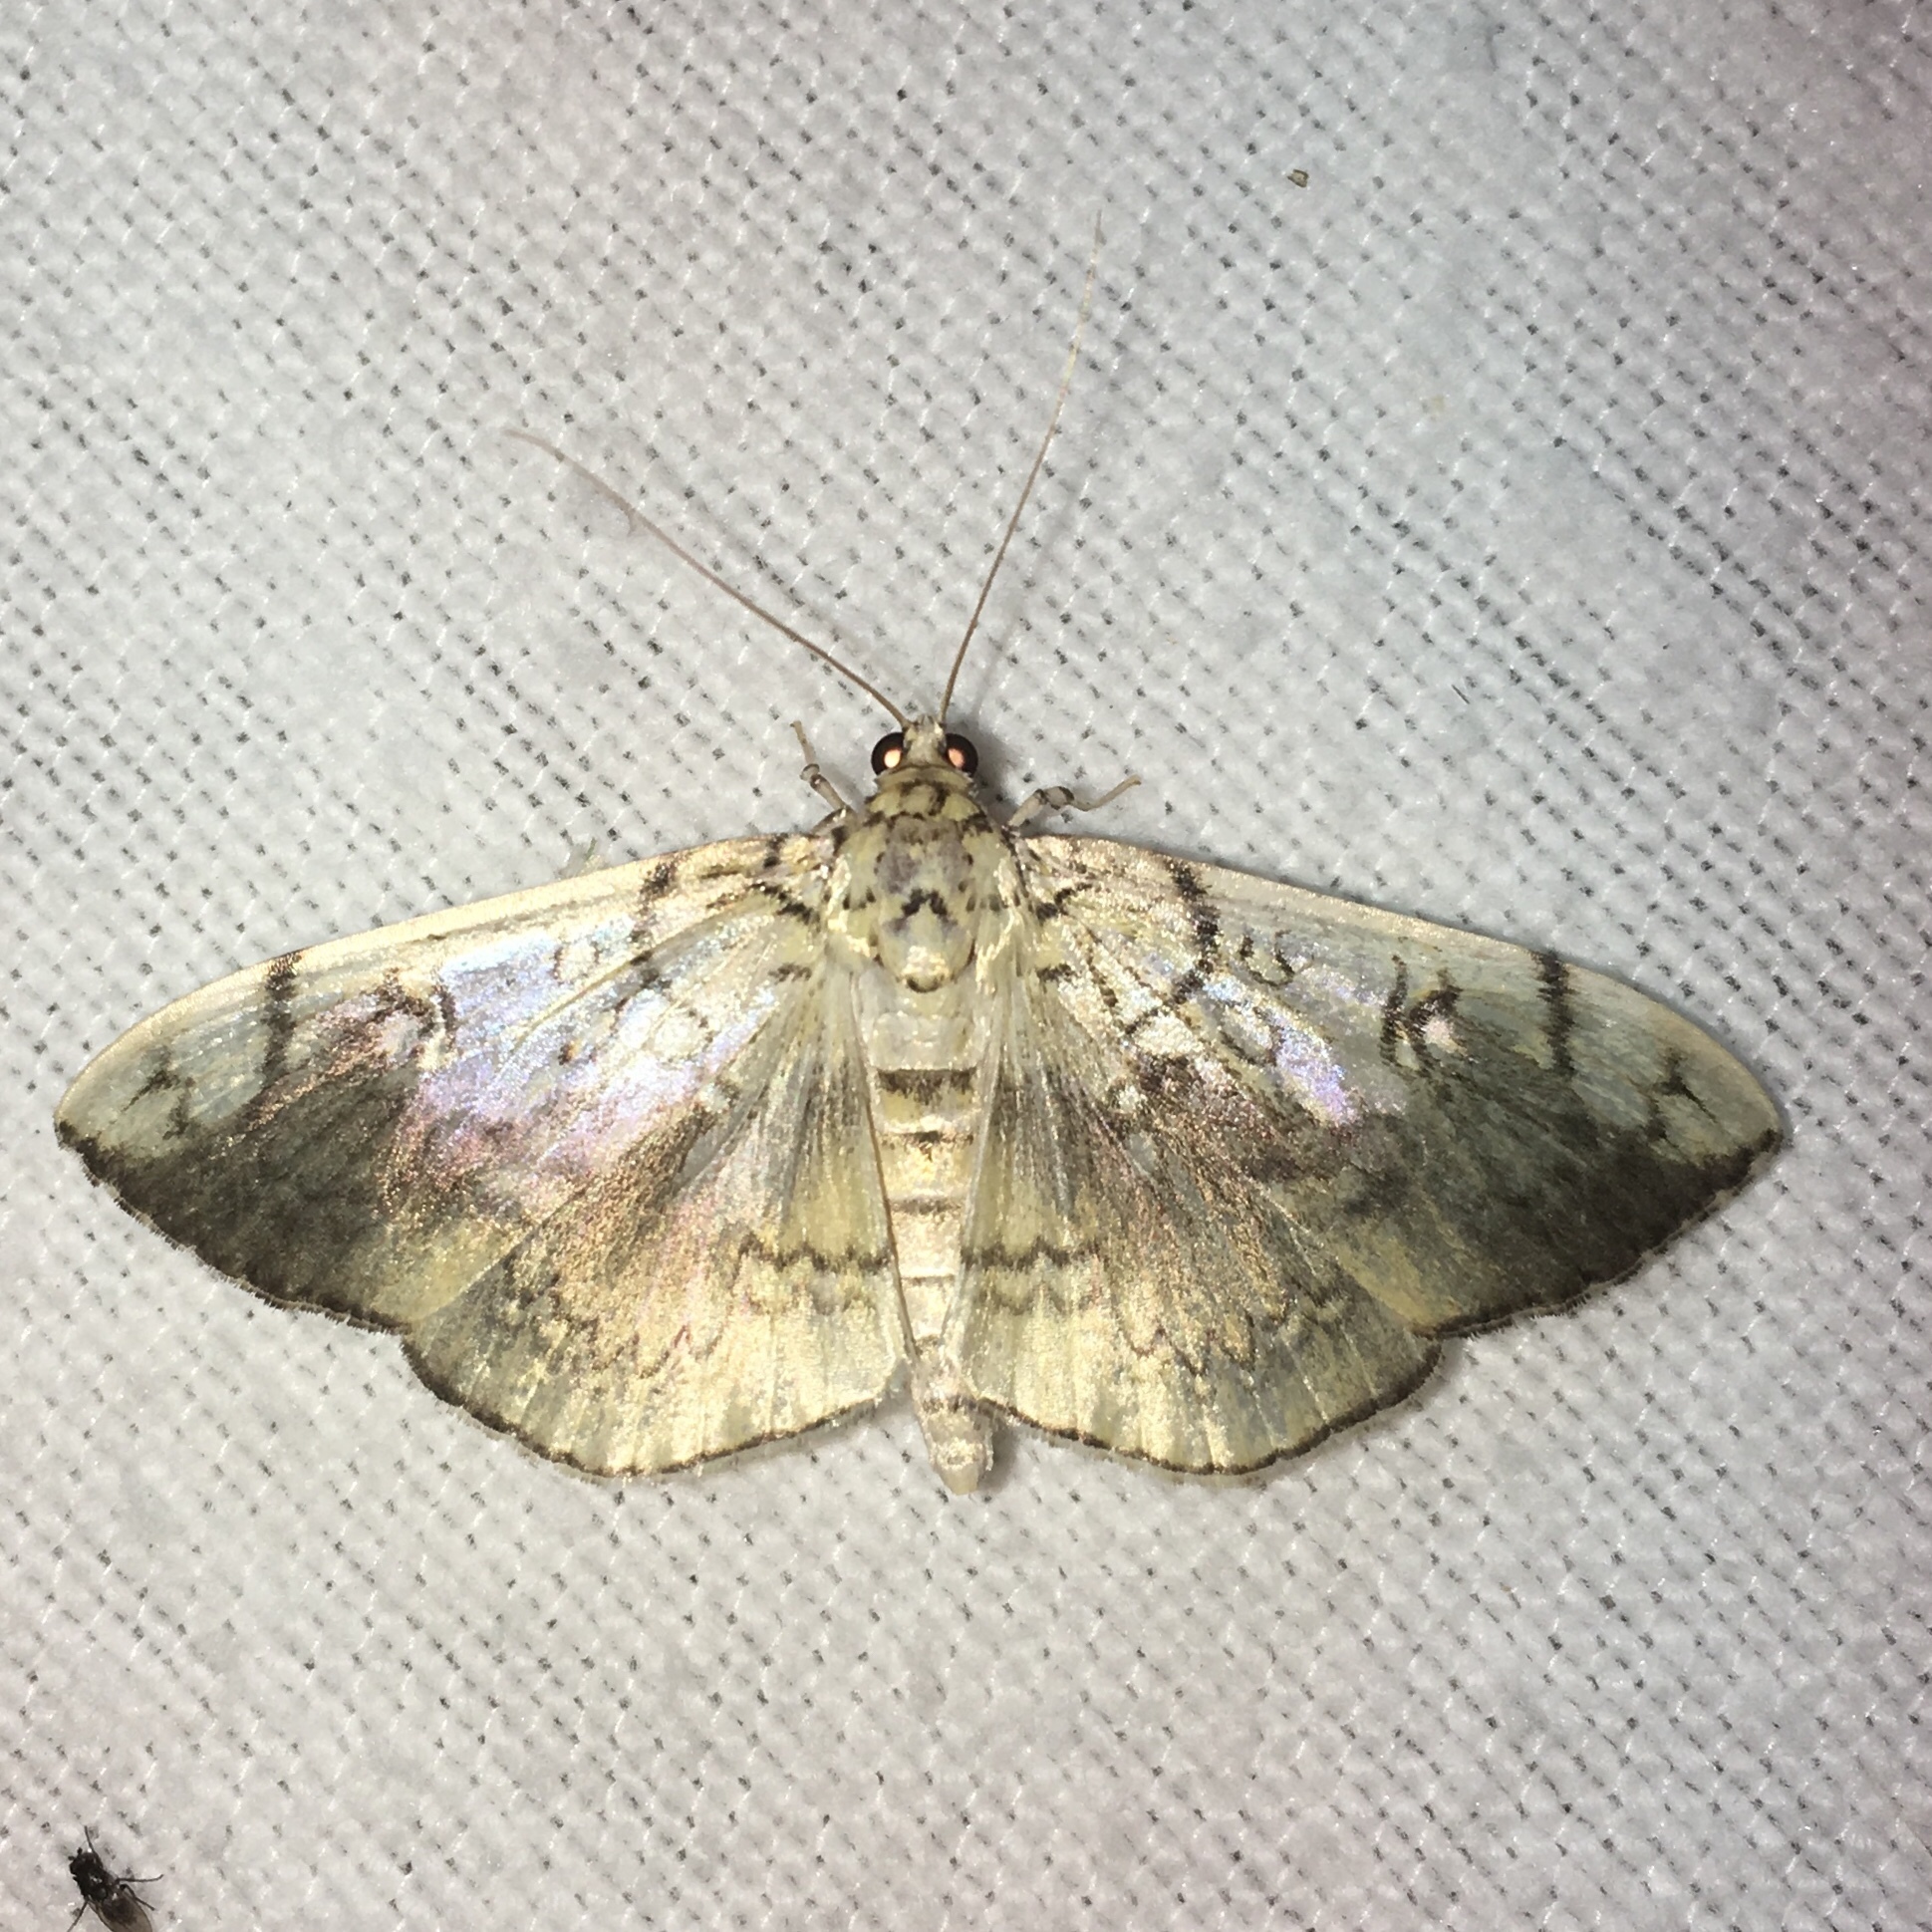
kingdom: Animalia
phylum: Arthropoda
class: Insecta
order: Lepidoptera
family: Crambidae
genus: Pantographa
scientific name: Pantographa limata
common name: Basswood leafroller moth
